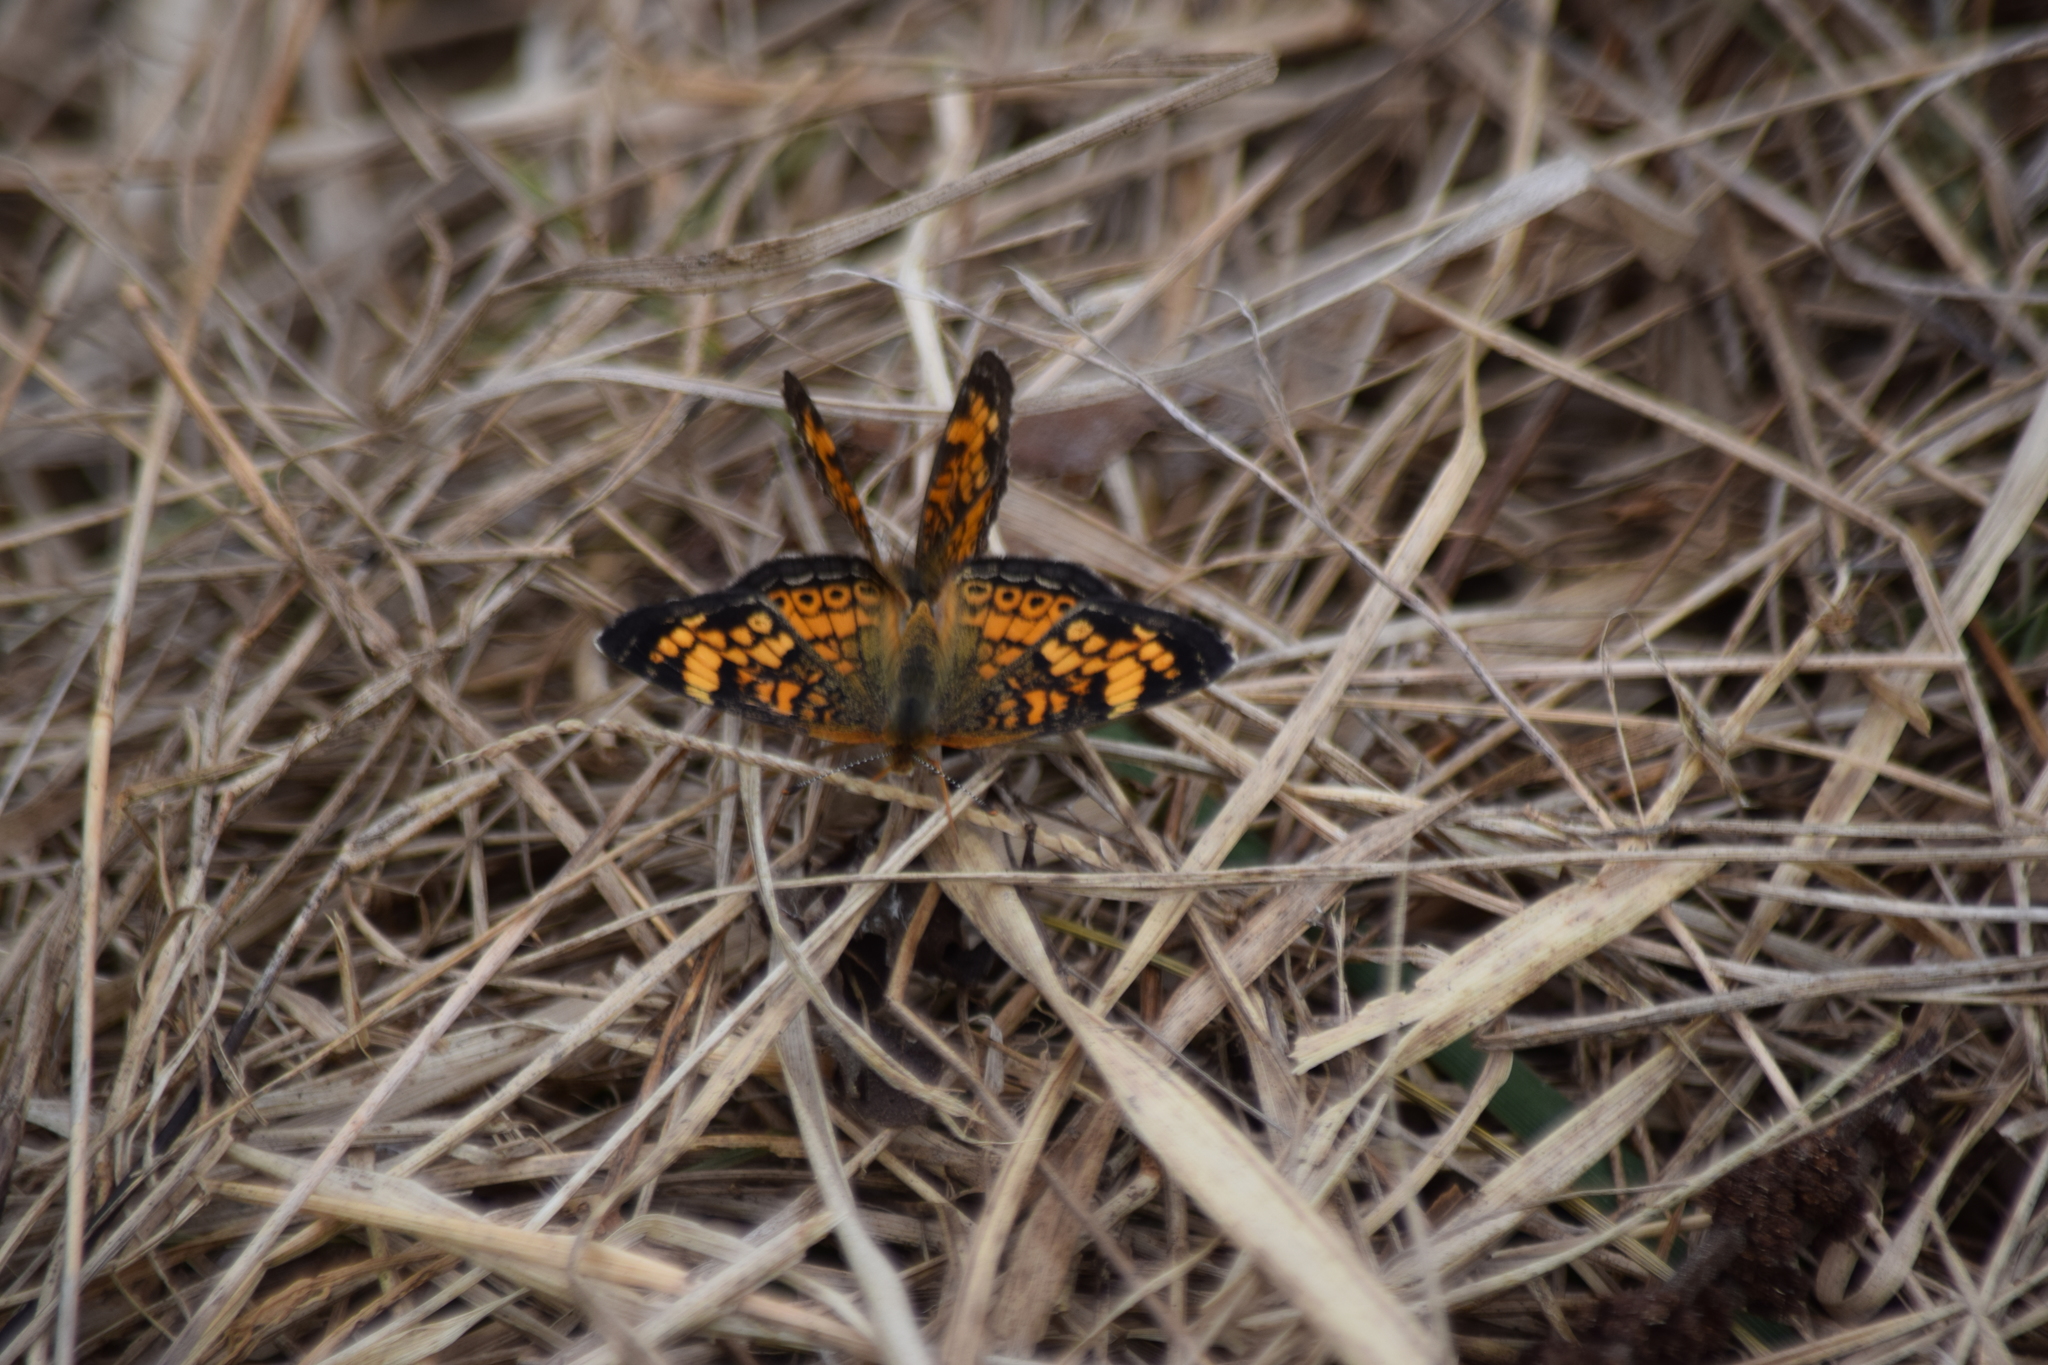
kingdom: Animalia
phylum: Arthropoda
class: Insecta
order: Lepidoptera
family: Nymphalidae
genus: Phyciodes
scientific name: Phyciodes tharos
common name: Pearl crescent
